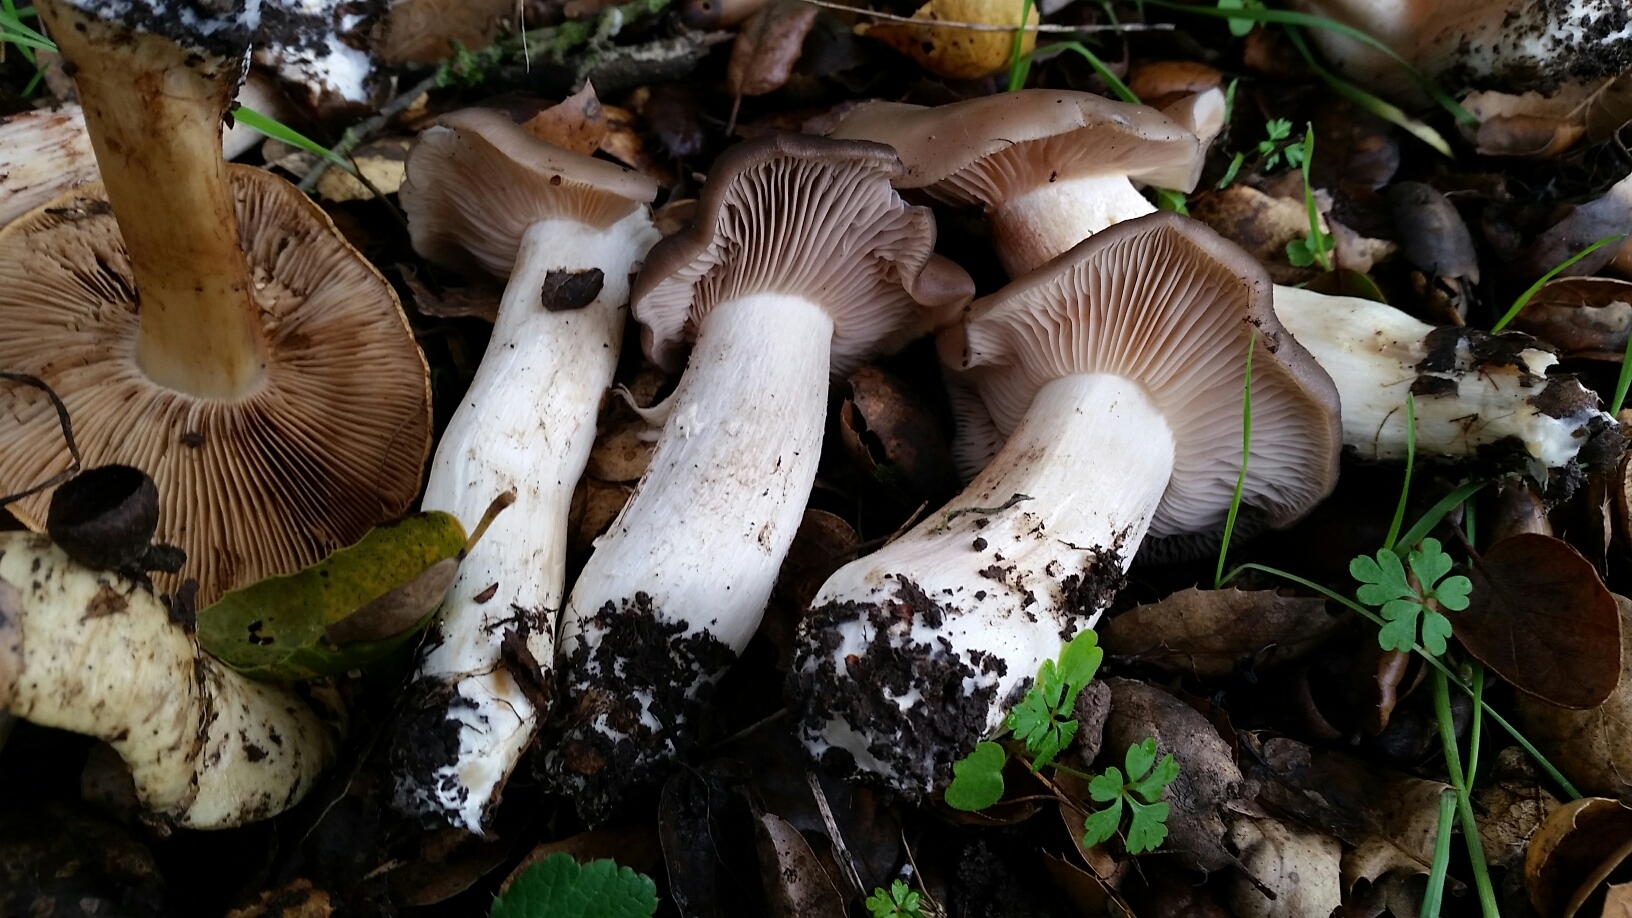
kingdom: Fungi
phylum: Basidiomycota
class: Agaricomycetes
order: Agaricales
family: Entolomataceae
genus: Entoloma
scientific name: Entoloma ferruginans
